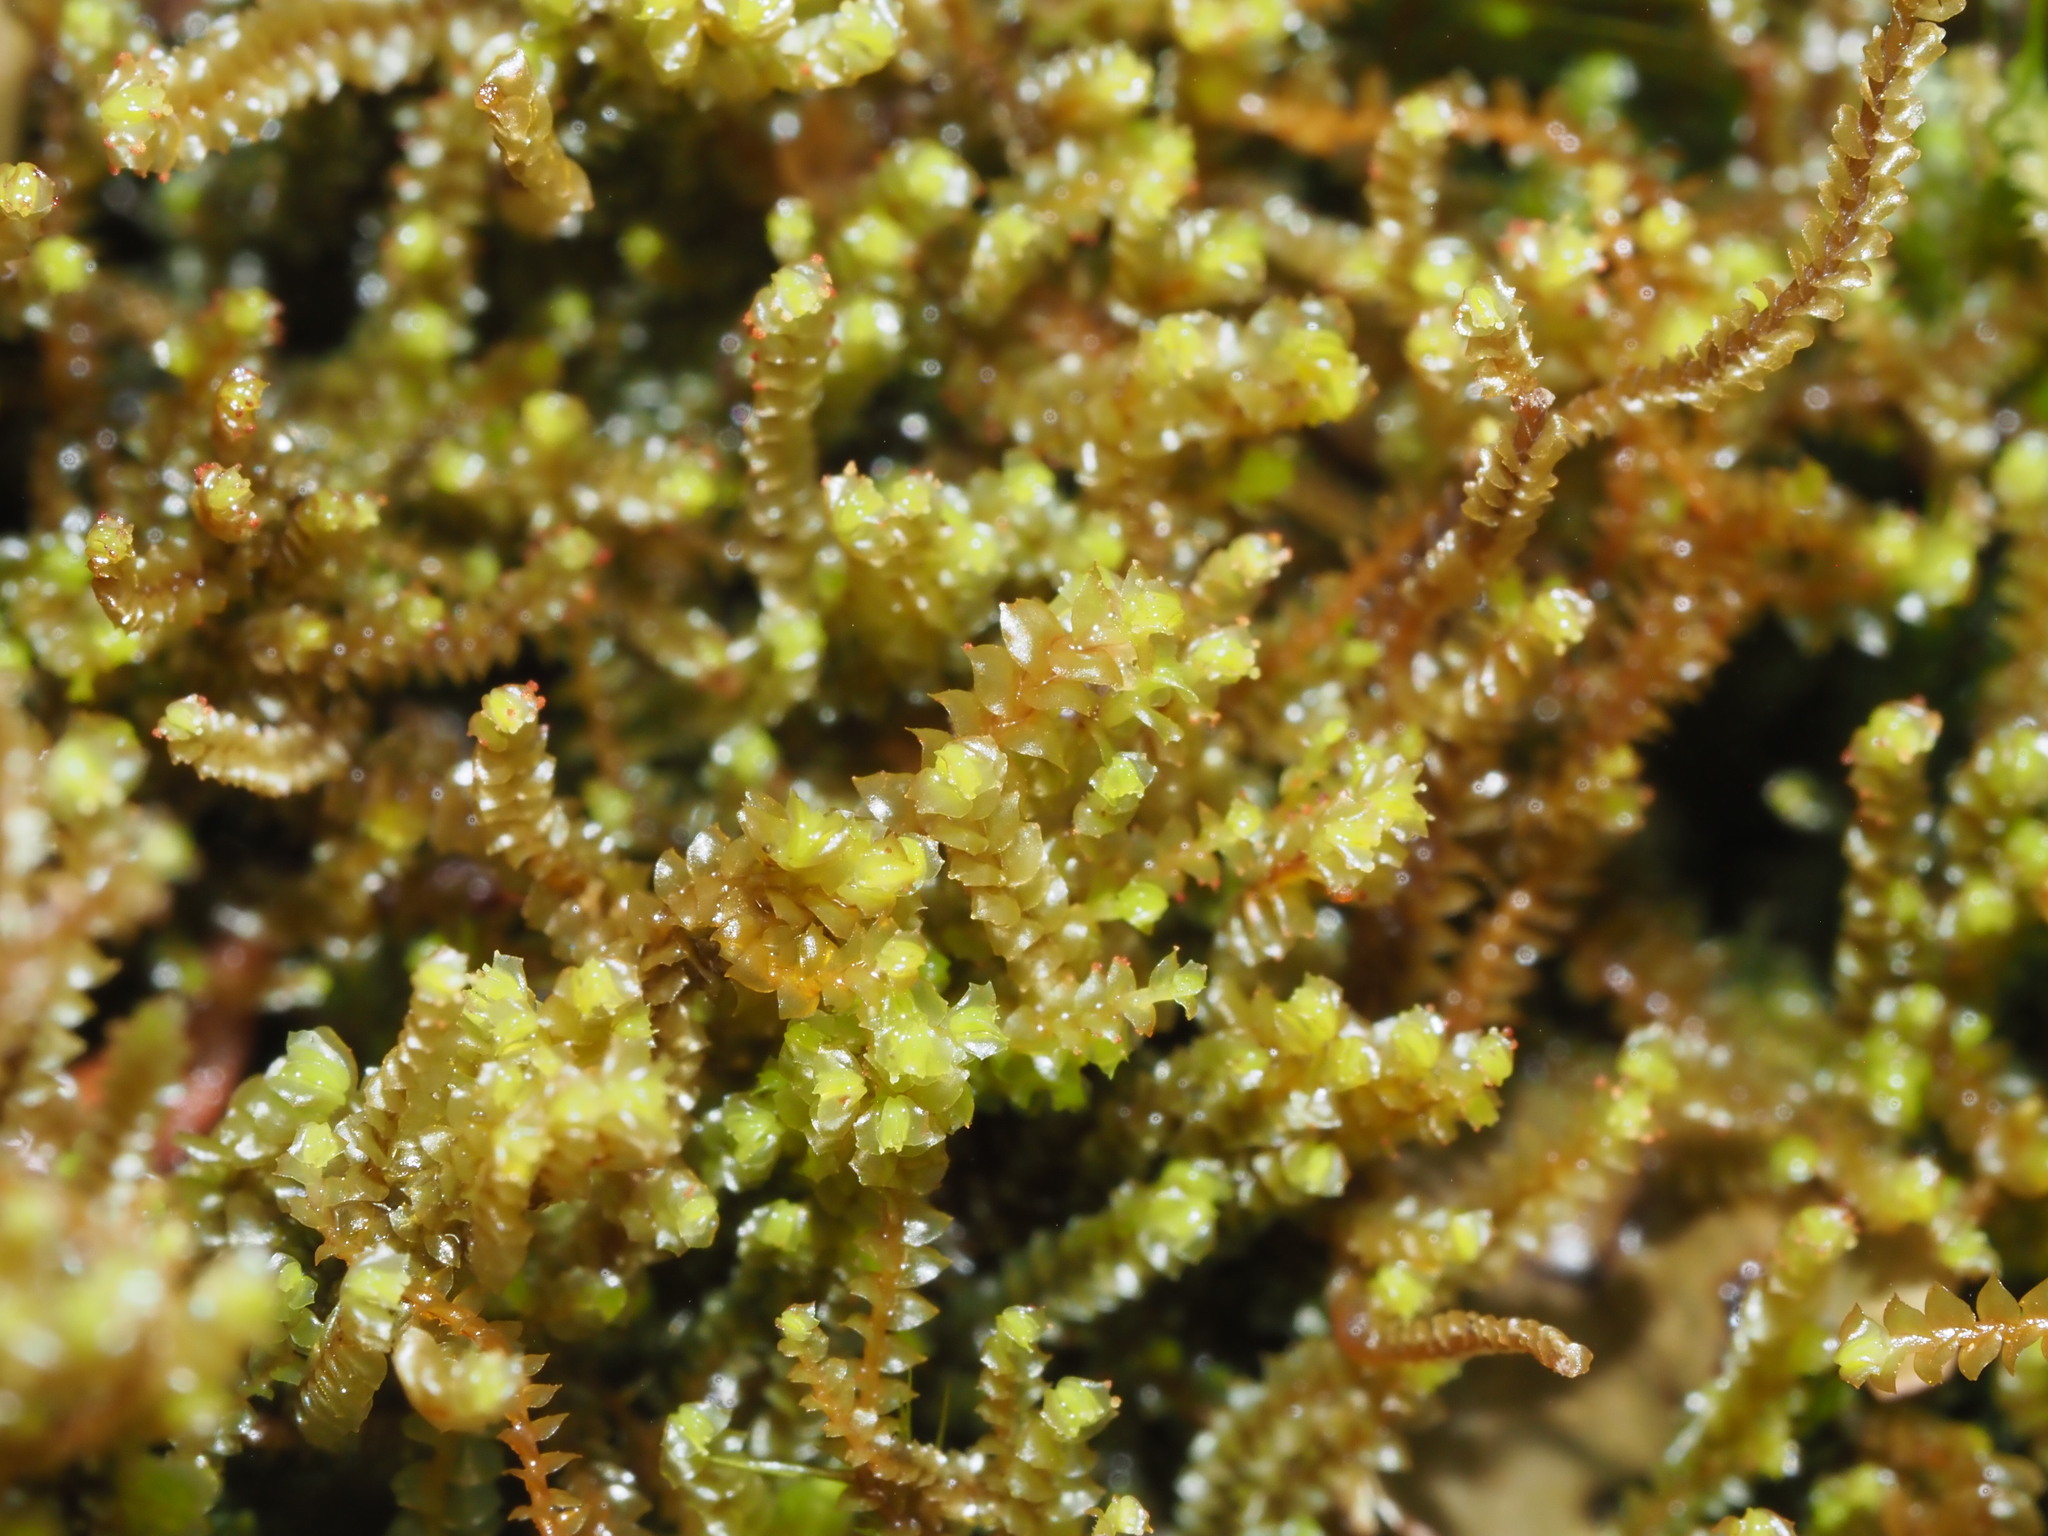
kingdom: Plantae
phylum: Marchantiophyta
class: Jungermanniopsida
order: Jungermanniales
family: Anastrophyllaceae
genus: Anastrepta
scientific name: Anastrepta orcadensis
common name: Orkney notchwort
